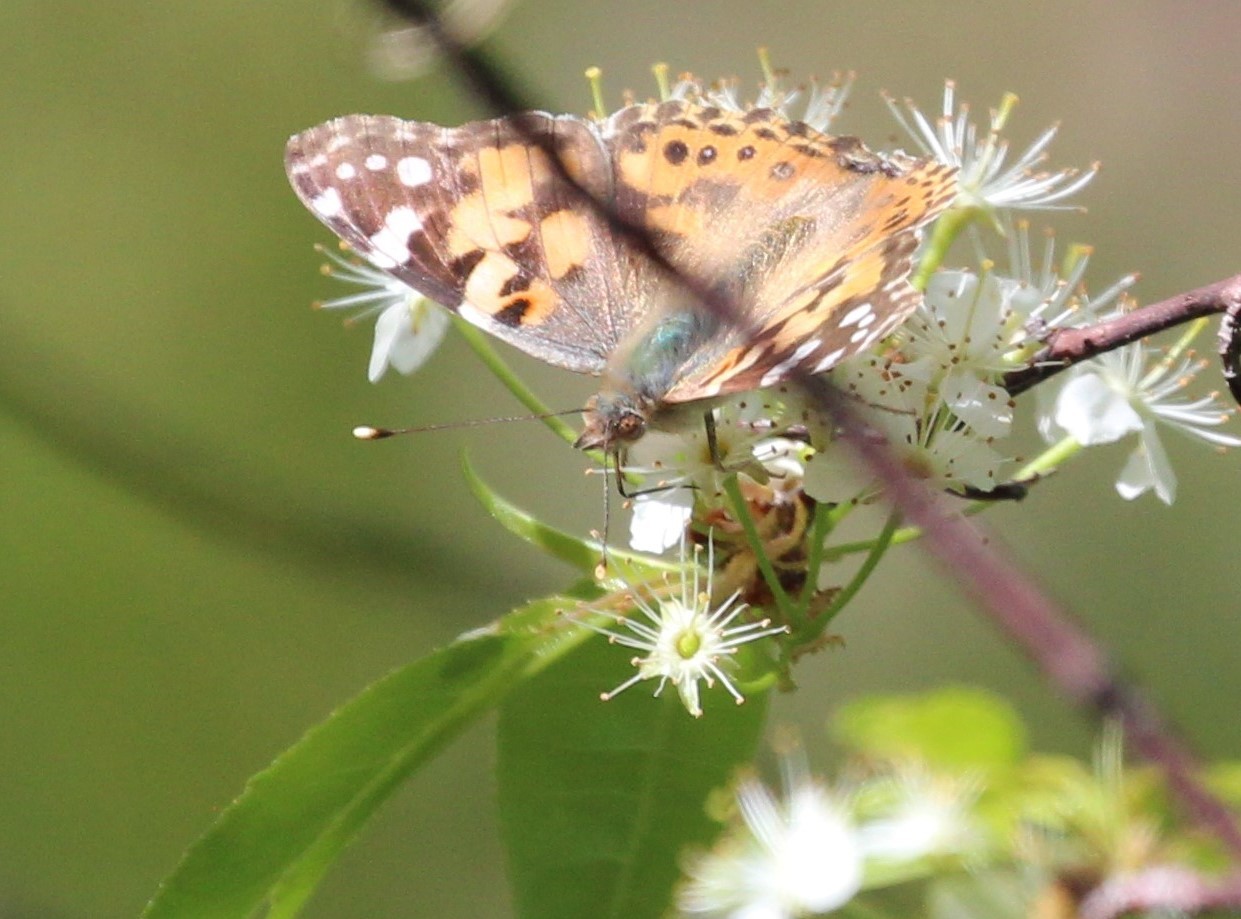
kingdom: Animalia
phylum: Arthropoda
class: Insecta
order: Lepidoptera
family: Nymphalidae
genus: Vanessa
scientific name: Vanessa cardui
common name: Painted lady
